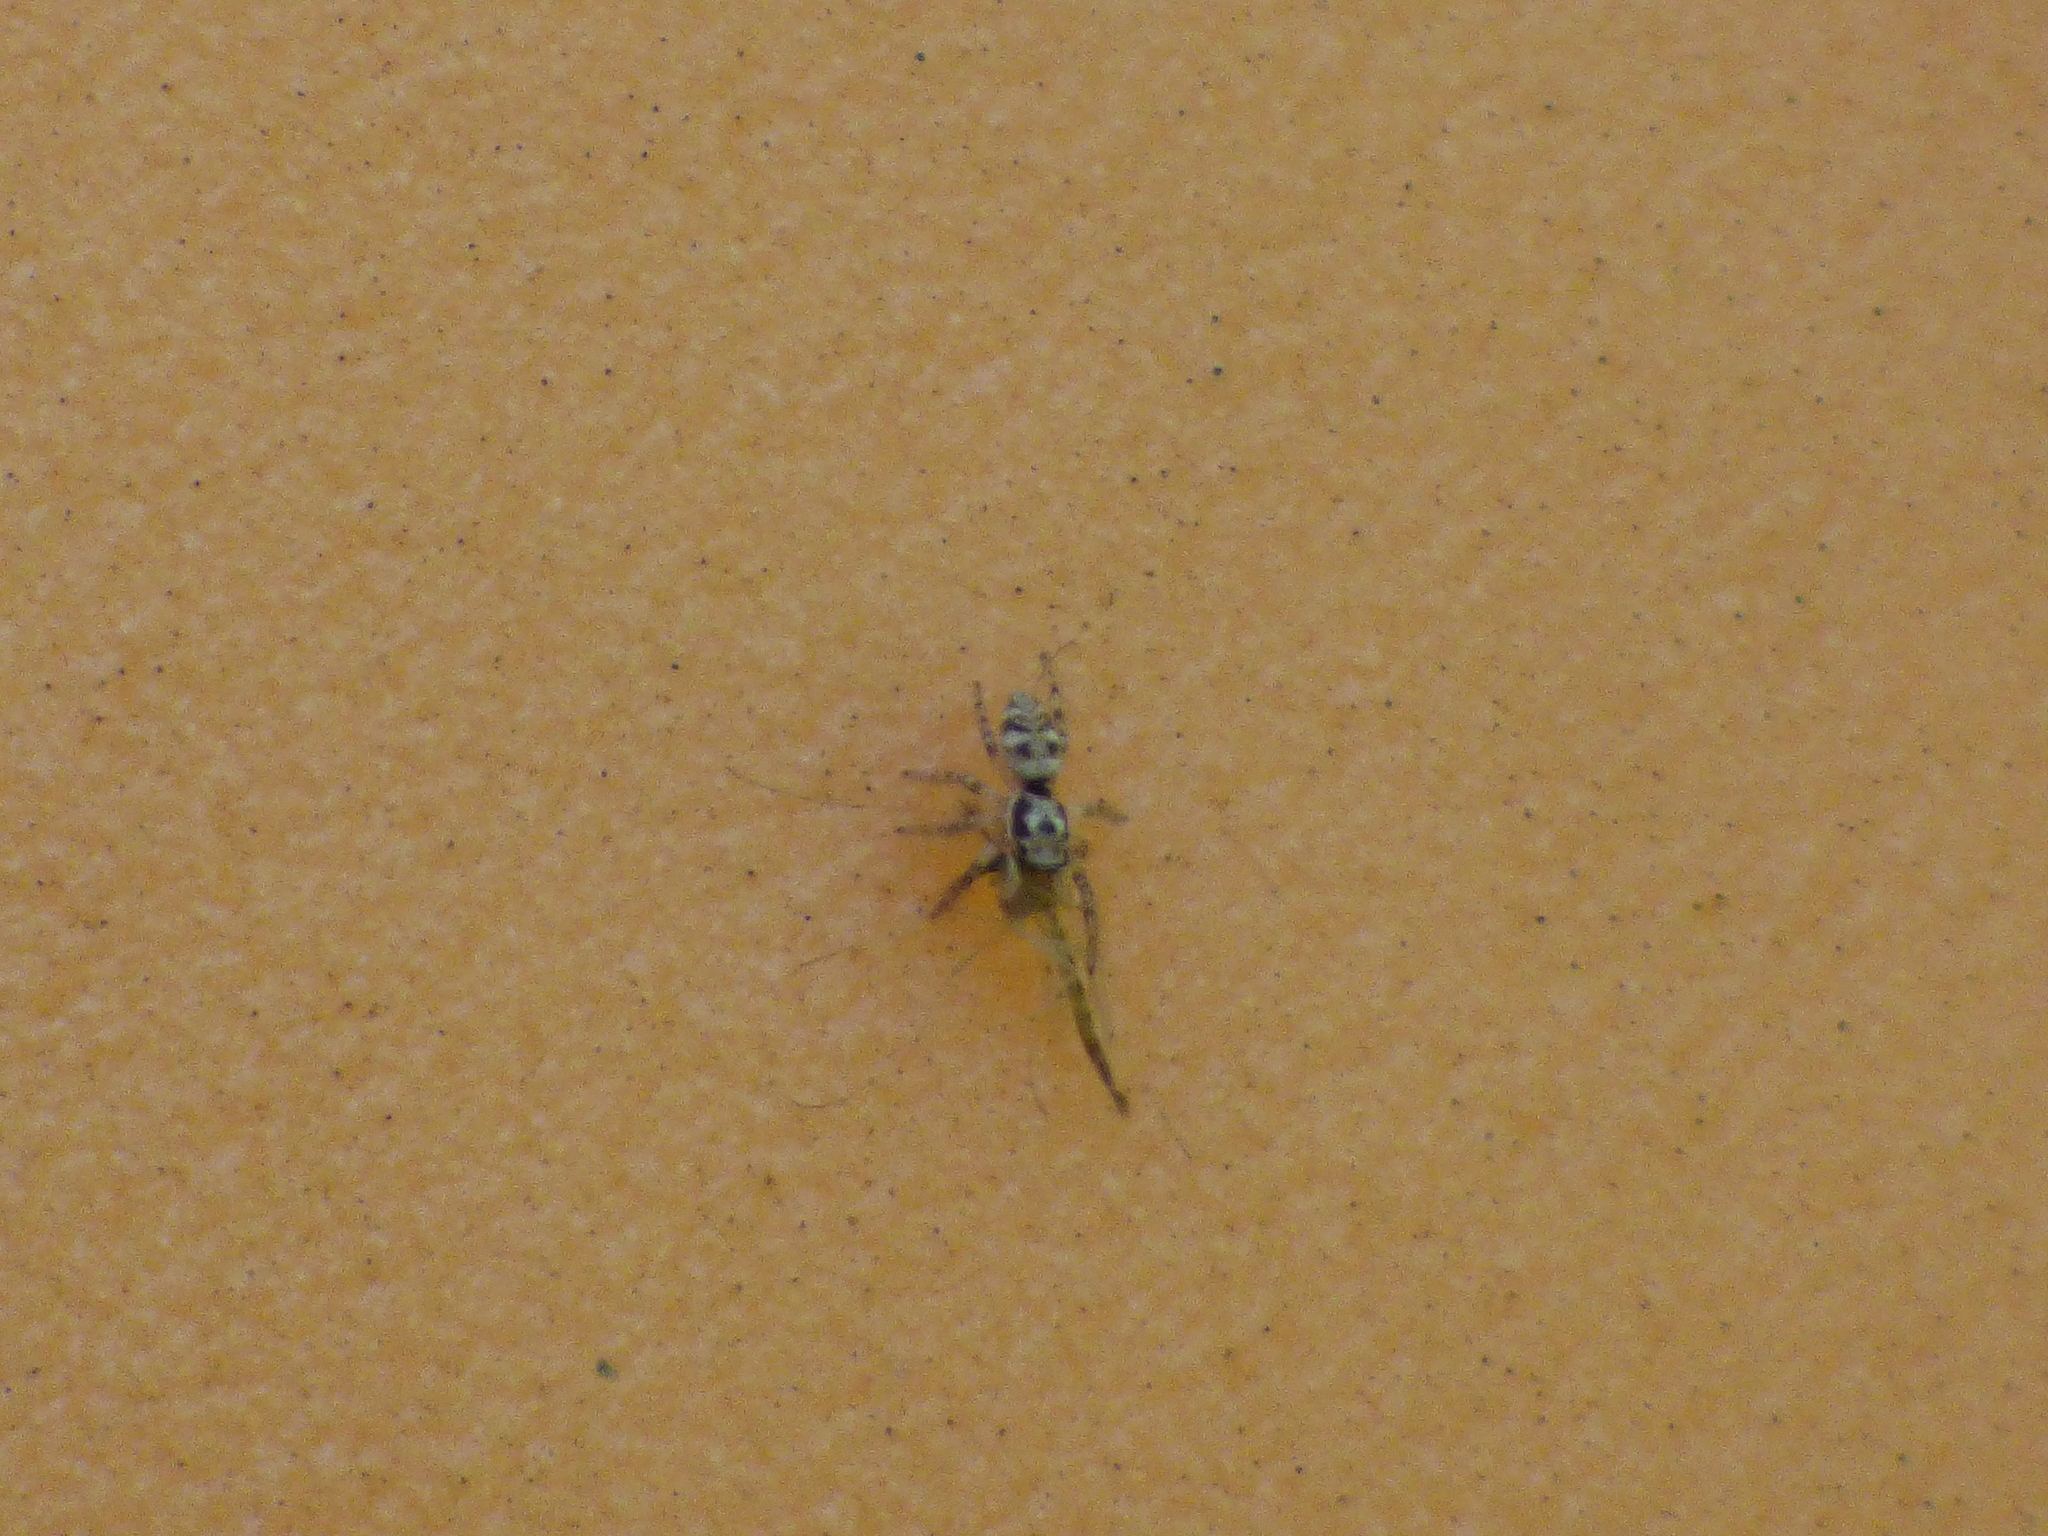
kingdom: Animalia
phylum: Arthropoda
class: Arachnida
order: Araneae
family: Salticidae
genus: Salticus
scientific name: Salticus scenicus
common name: Zebra jumper
